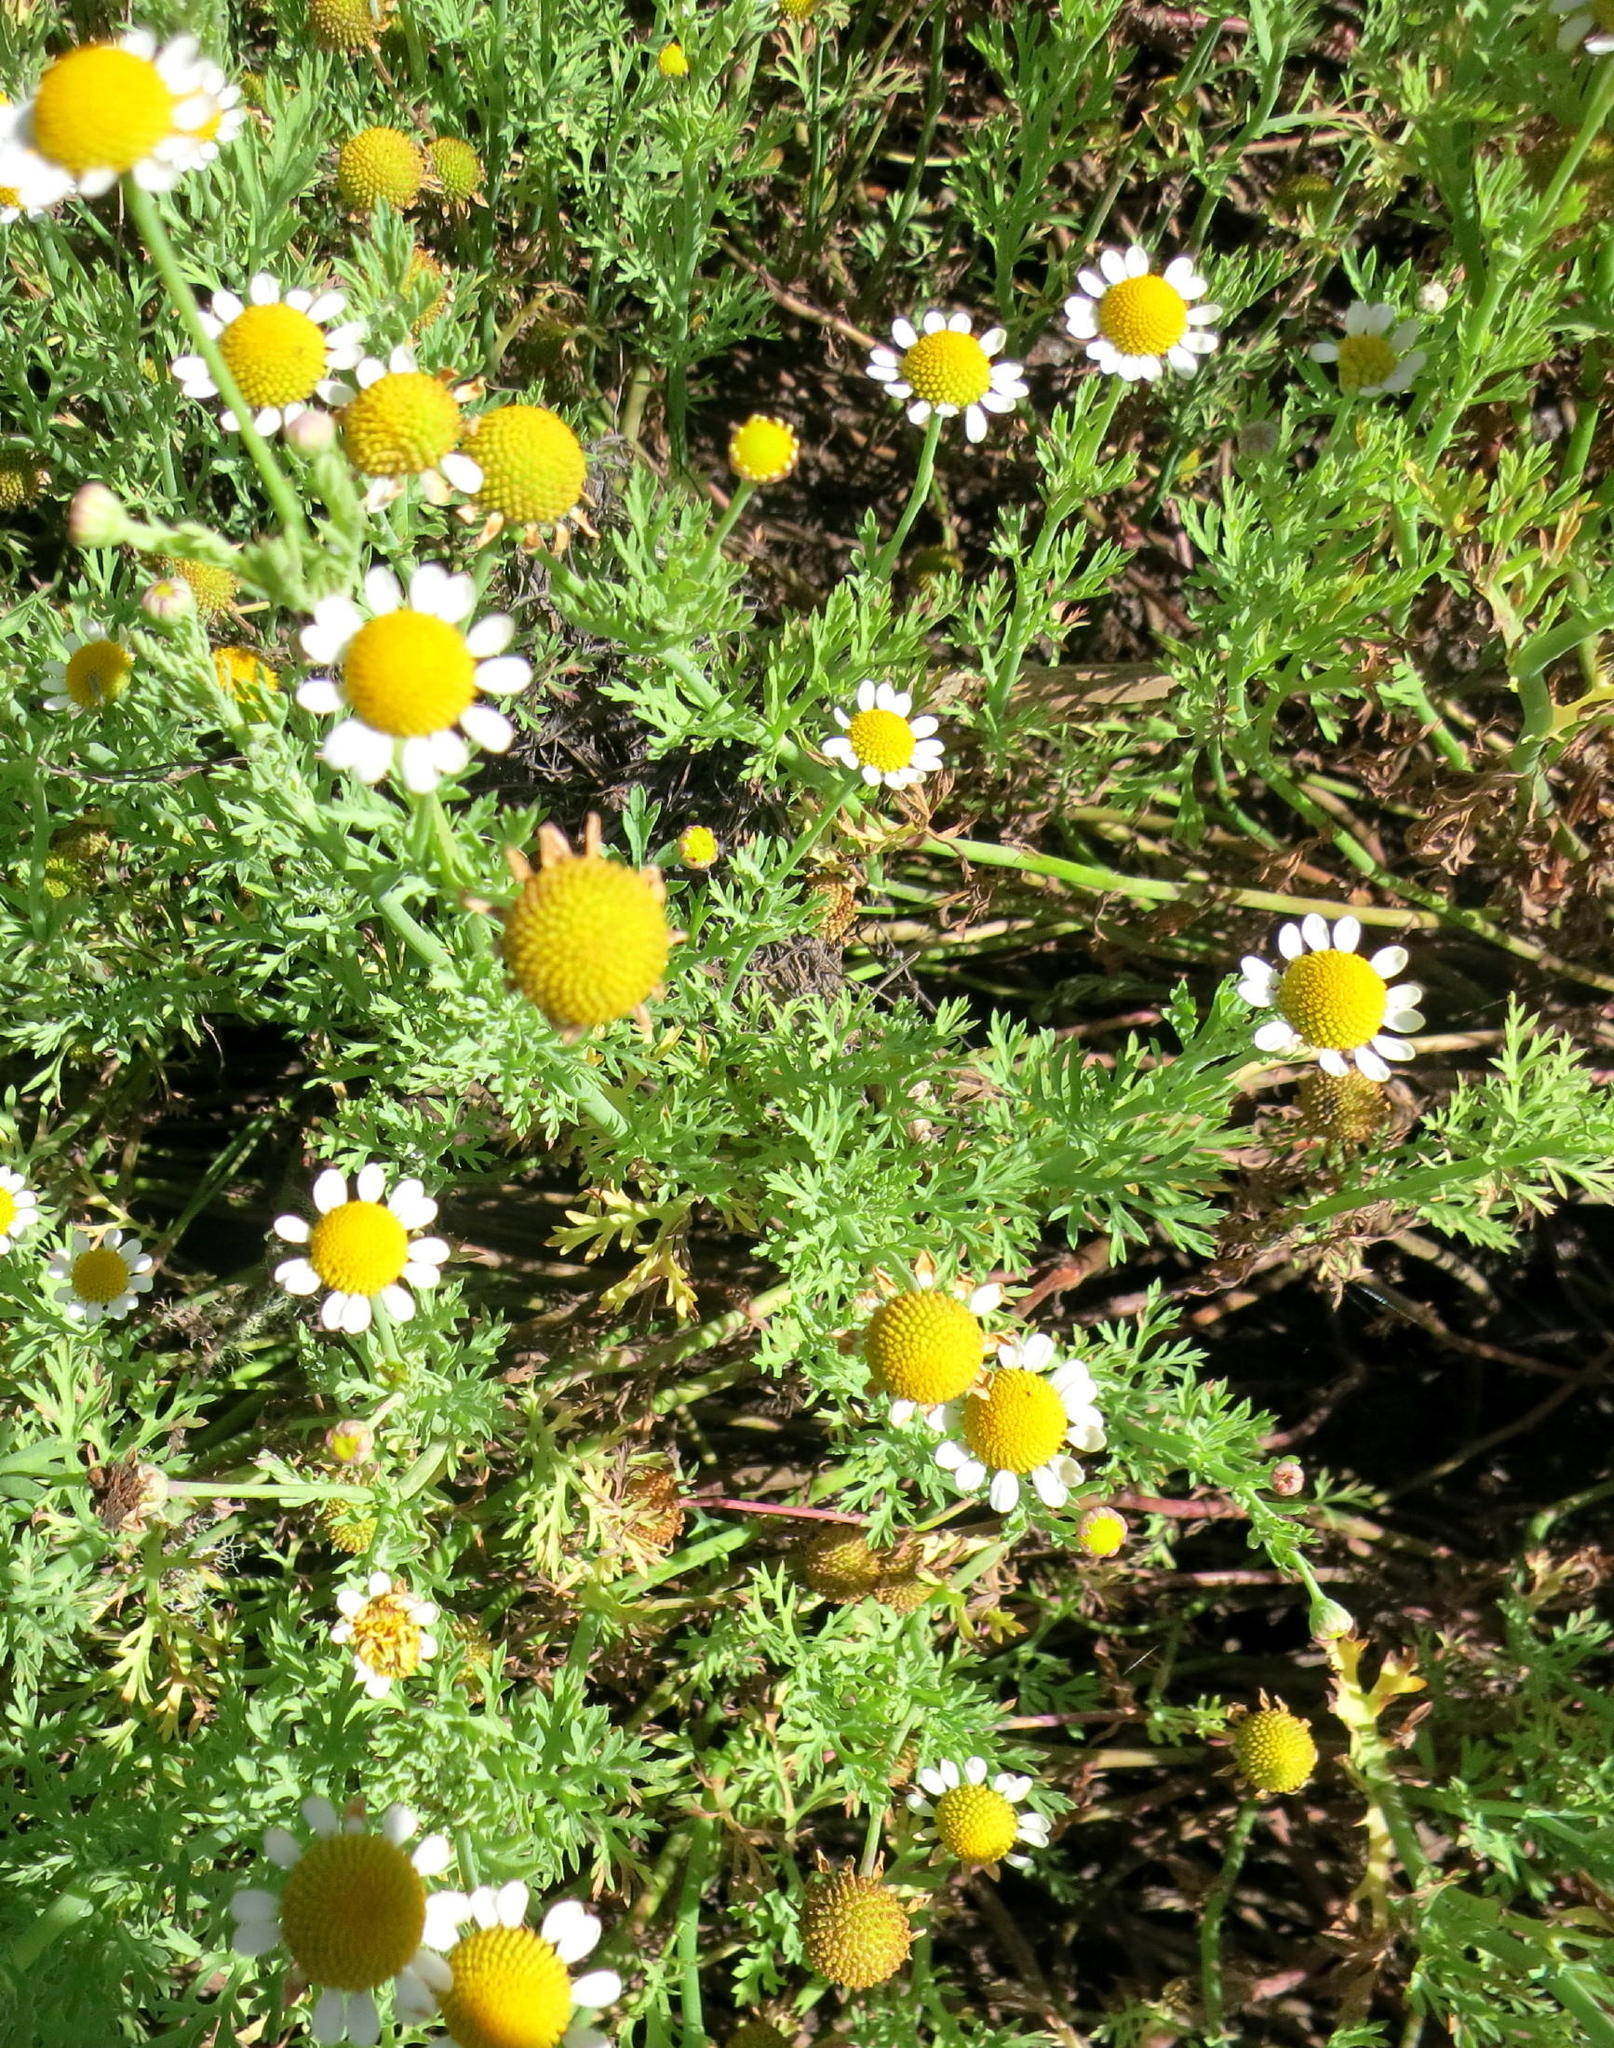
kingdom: Plantae
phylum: Tracheophyta
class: Magnoliopsida
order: Asterales
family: Asteraceae
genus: Cotula
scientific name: Cotula nigellifolia
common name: Staggerweed
